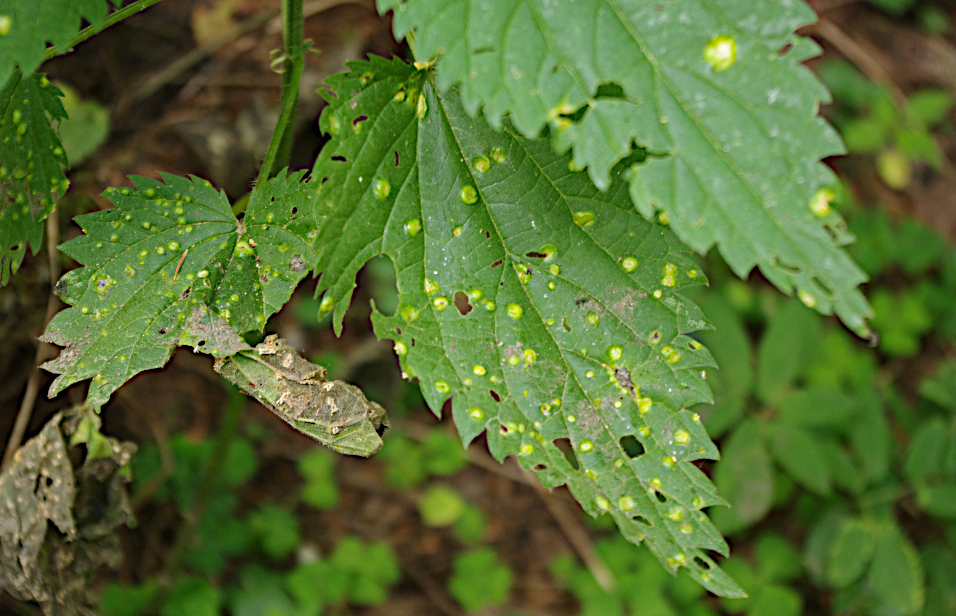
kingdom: Fungi
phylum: Basidiomycota
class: Pucciniomycetes
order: Pucciniales
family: Pucciniaceae
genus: Puccinia
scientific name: Puccinia urticata
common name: Nettle clustercup rust fungus
